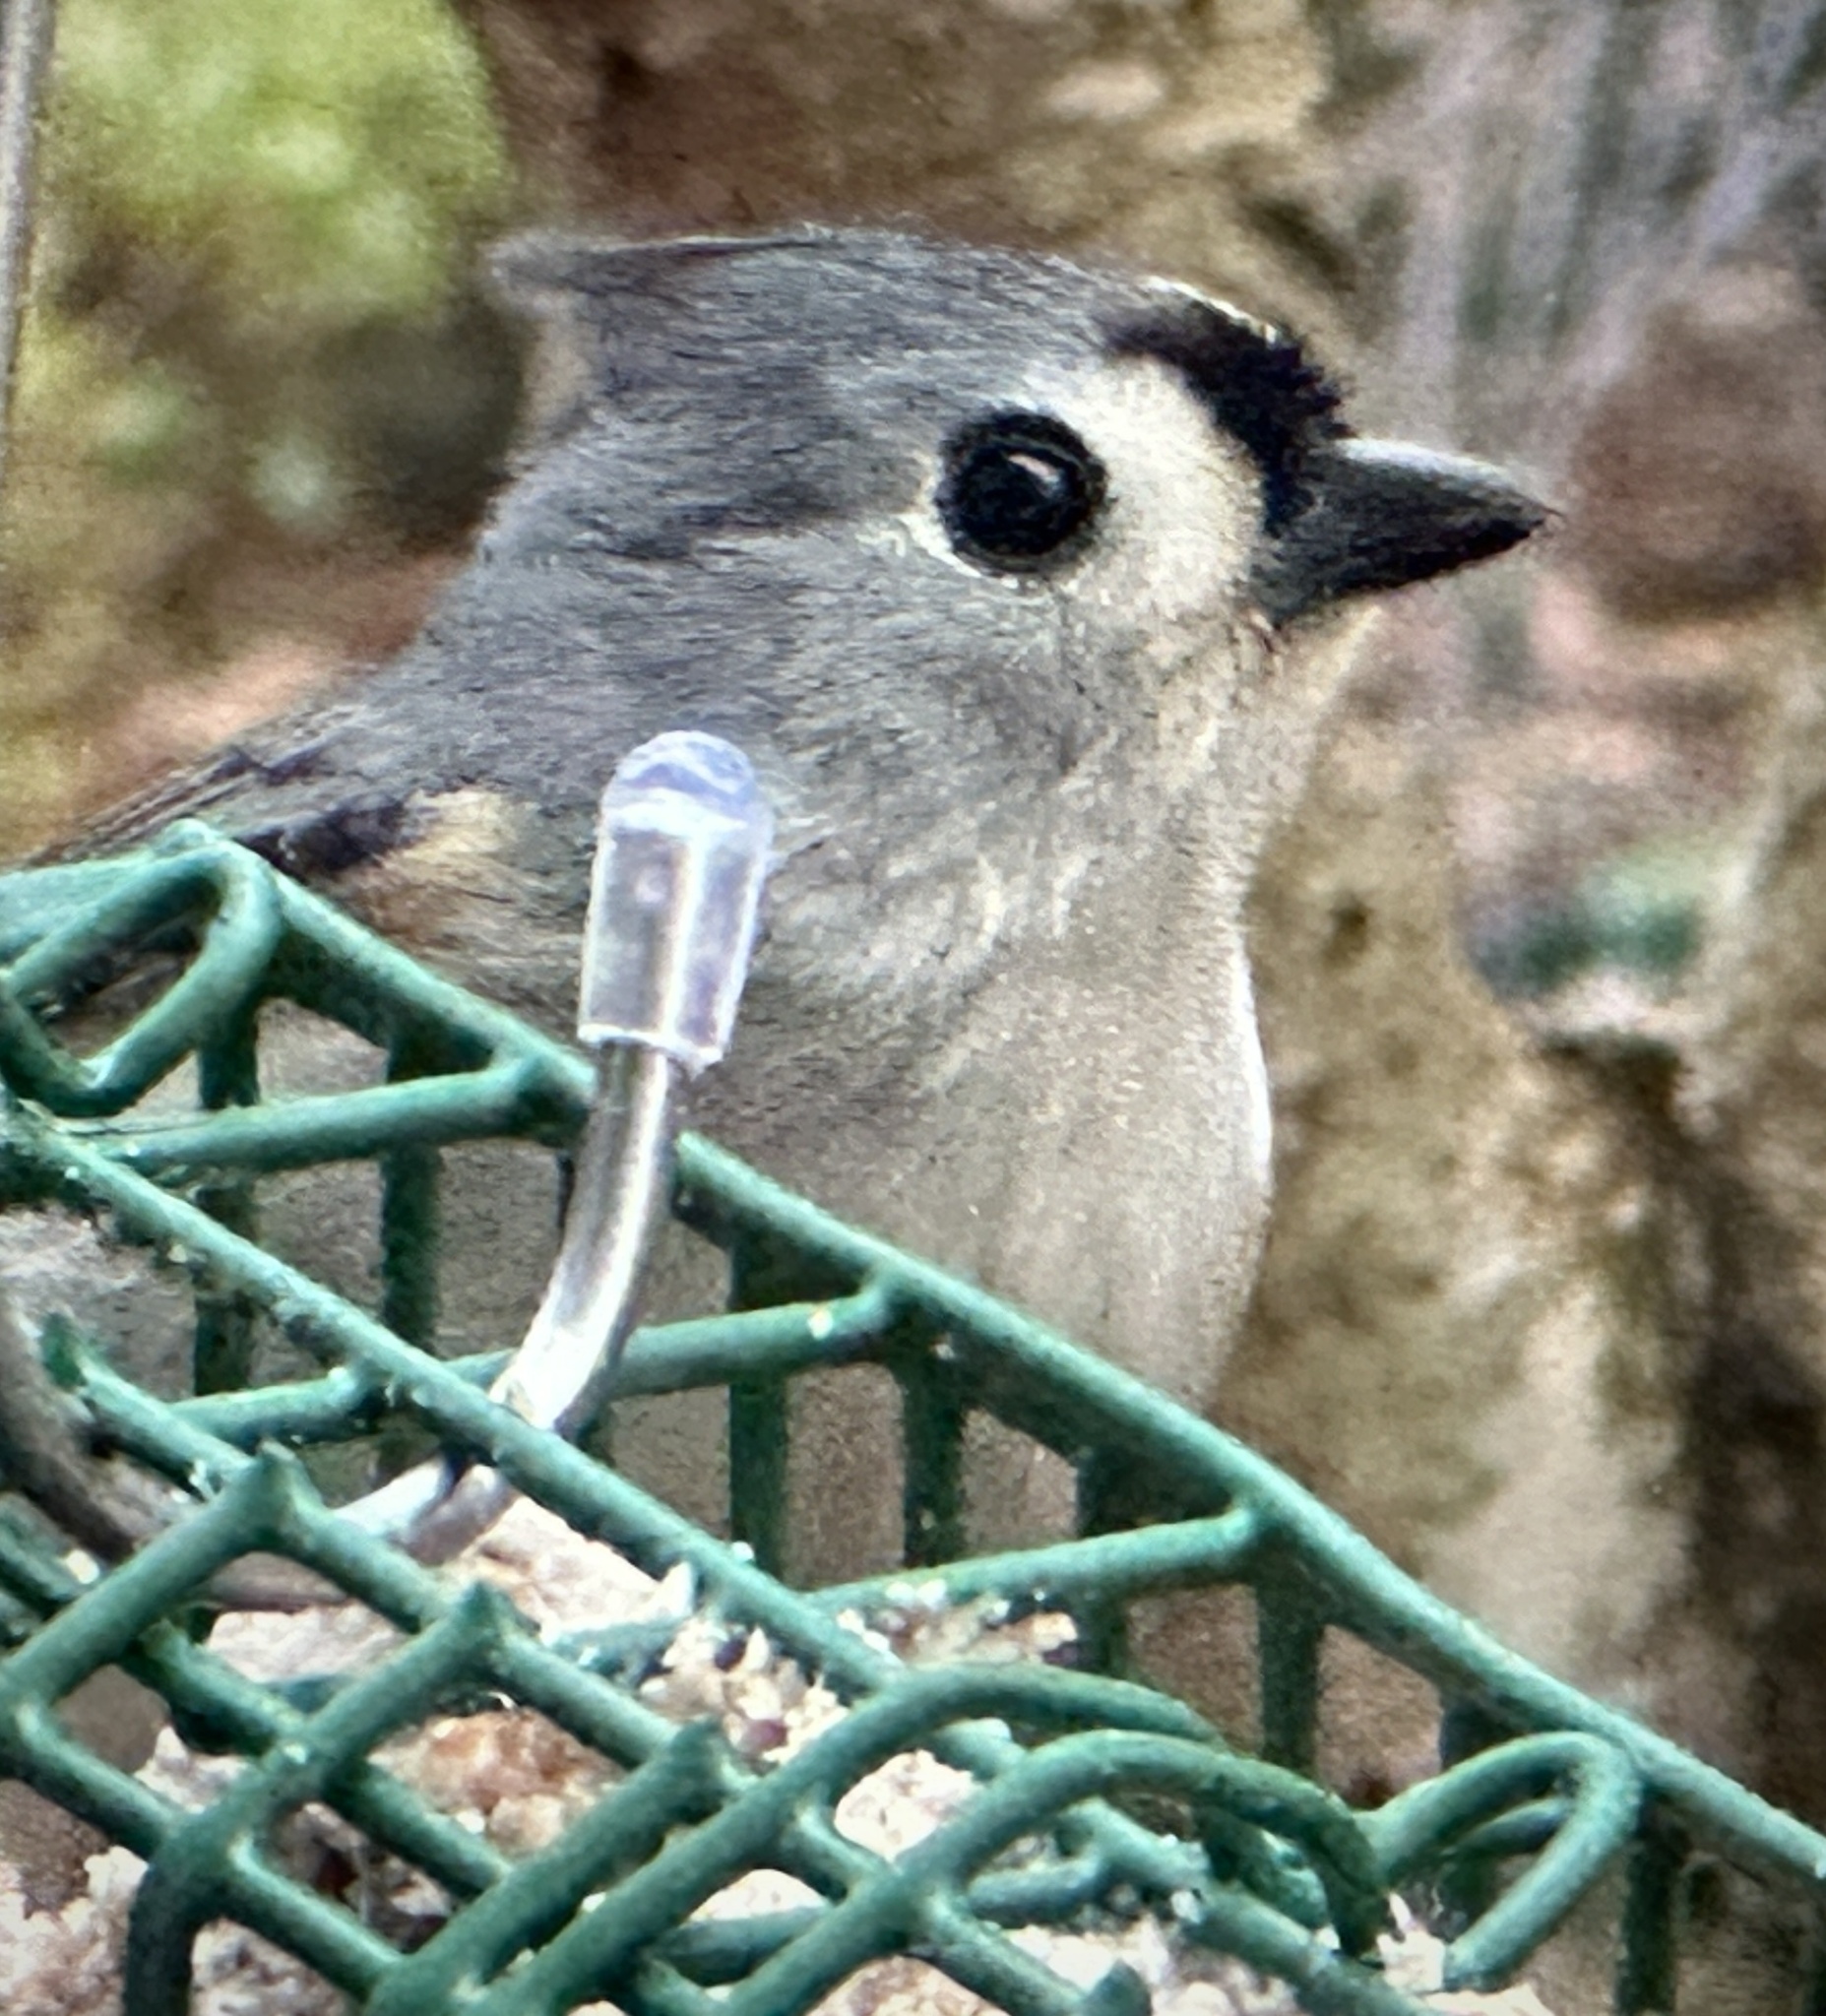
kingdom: Animalia
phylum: Chordata
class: Aves
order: Passeriformes
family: Paridae
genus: Baeolophus
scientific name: Baeolophus bicolor
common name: Tufted titmouse
